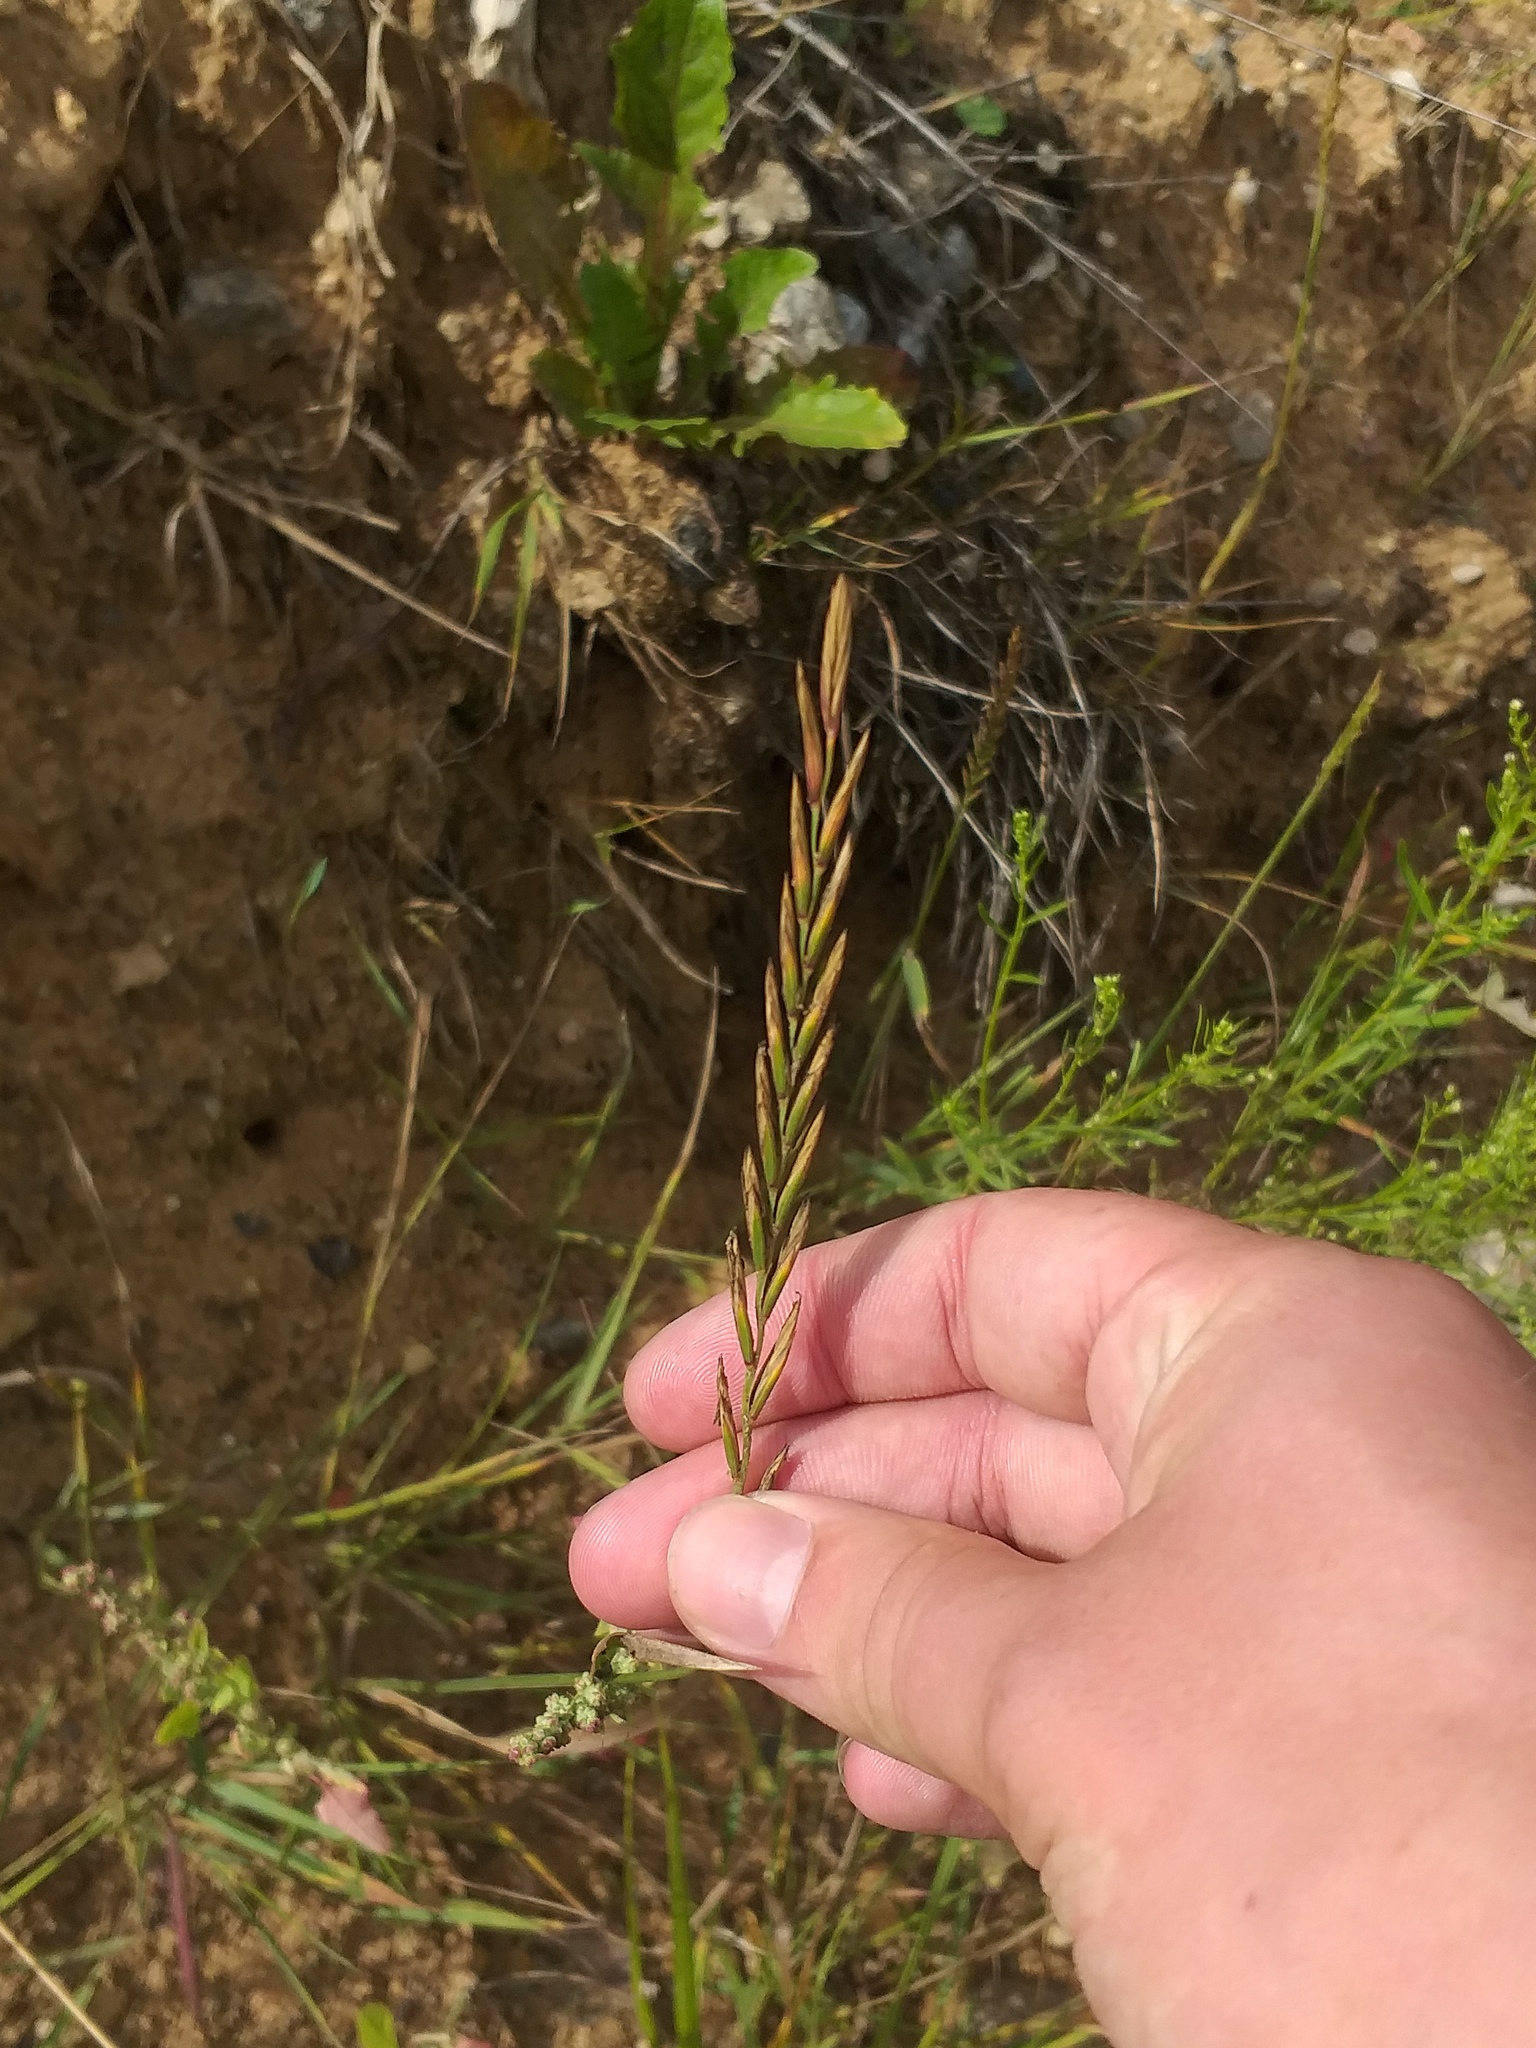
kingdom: Plantae
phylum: Tracheophyta
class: Liliopsida
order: Poales
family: Poaceae
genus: Elymus
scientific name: Elymus repens
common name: Quackgrass
